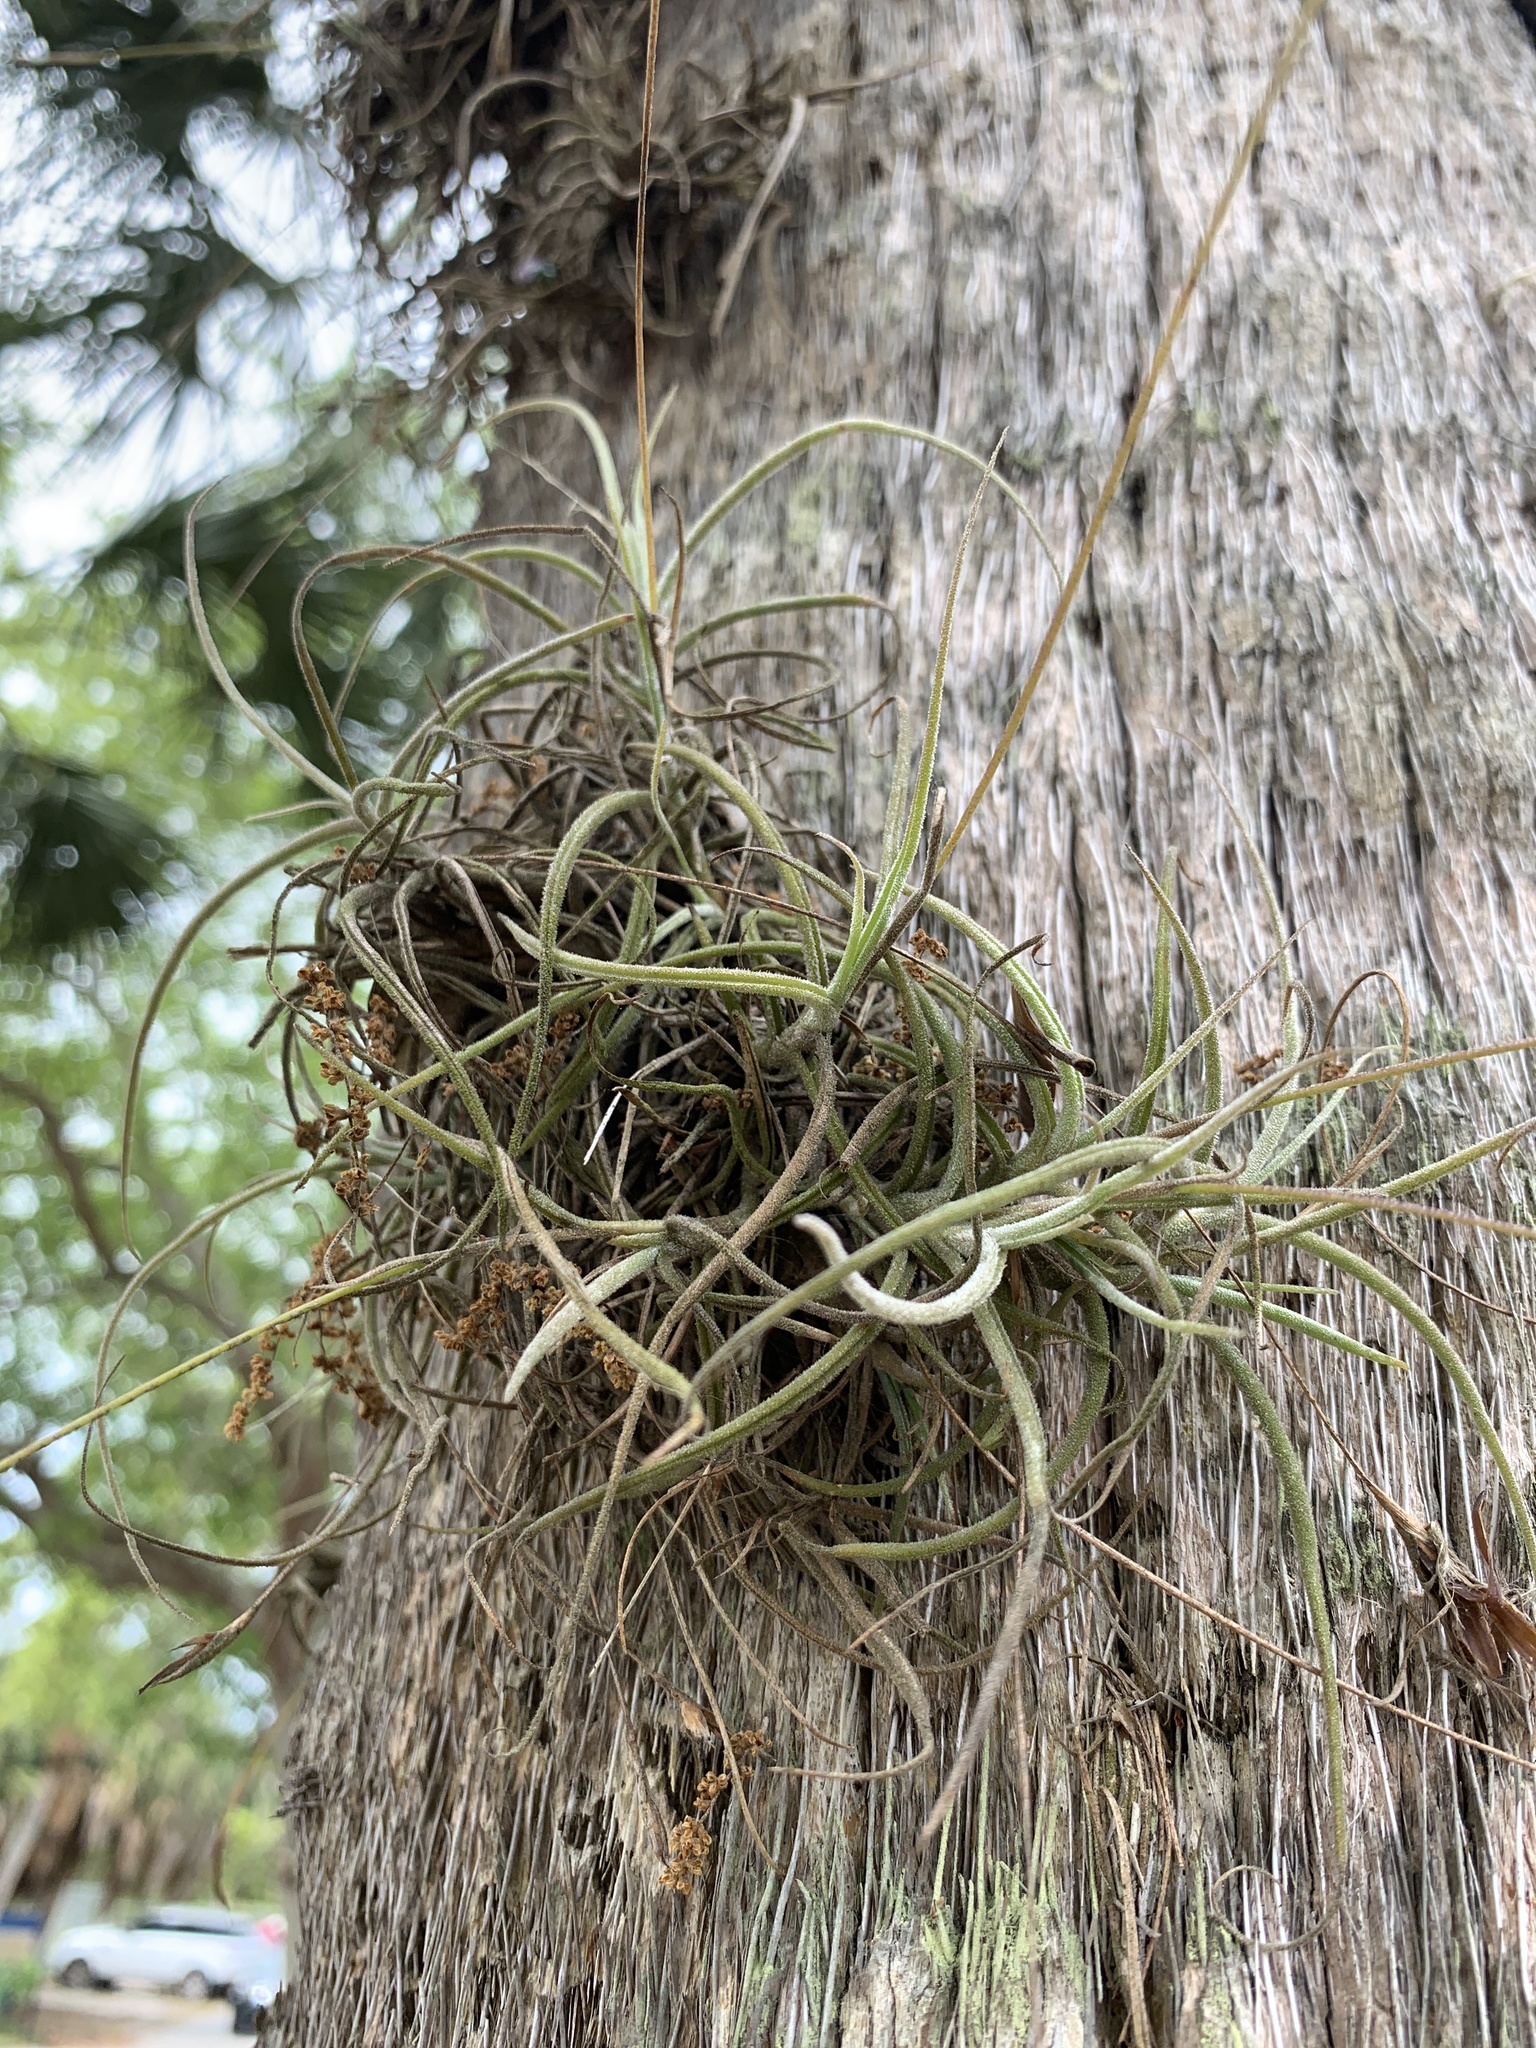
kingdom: Plantae
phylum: Tracheophyta
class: Liliopsida
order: Poales
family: Bromeliaceae
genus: Tillandsia
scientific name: Tillandsia recurvata
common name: Small ballmoss
